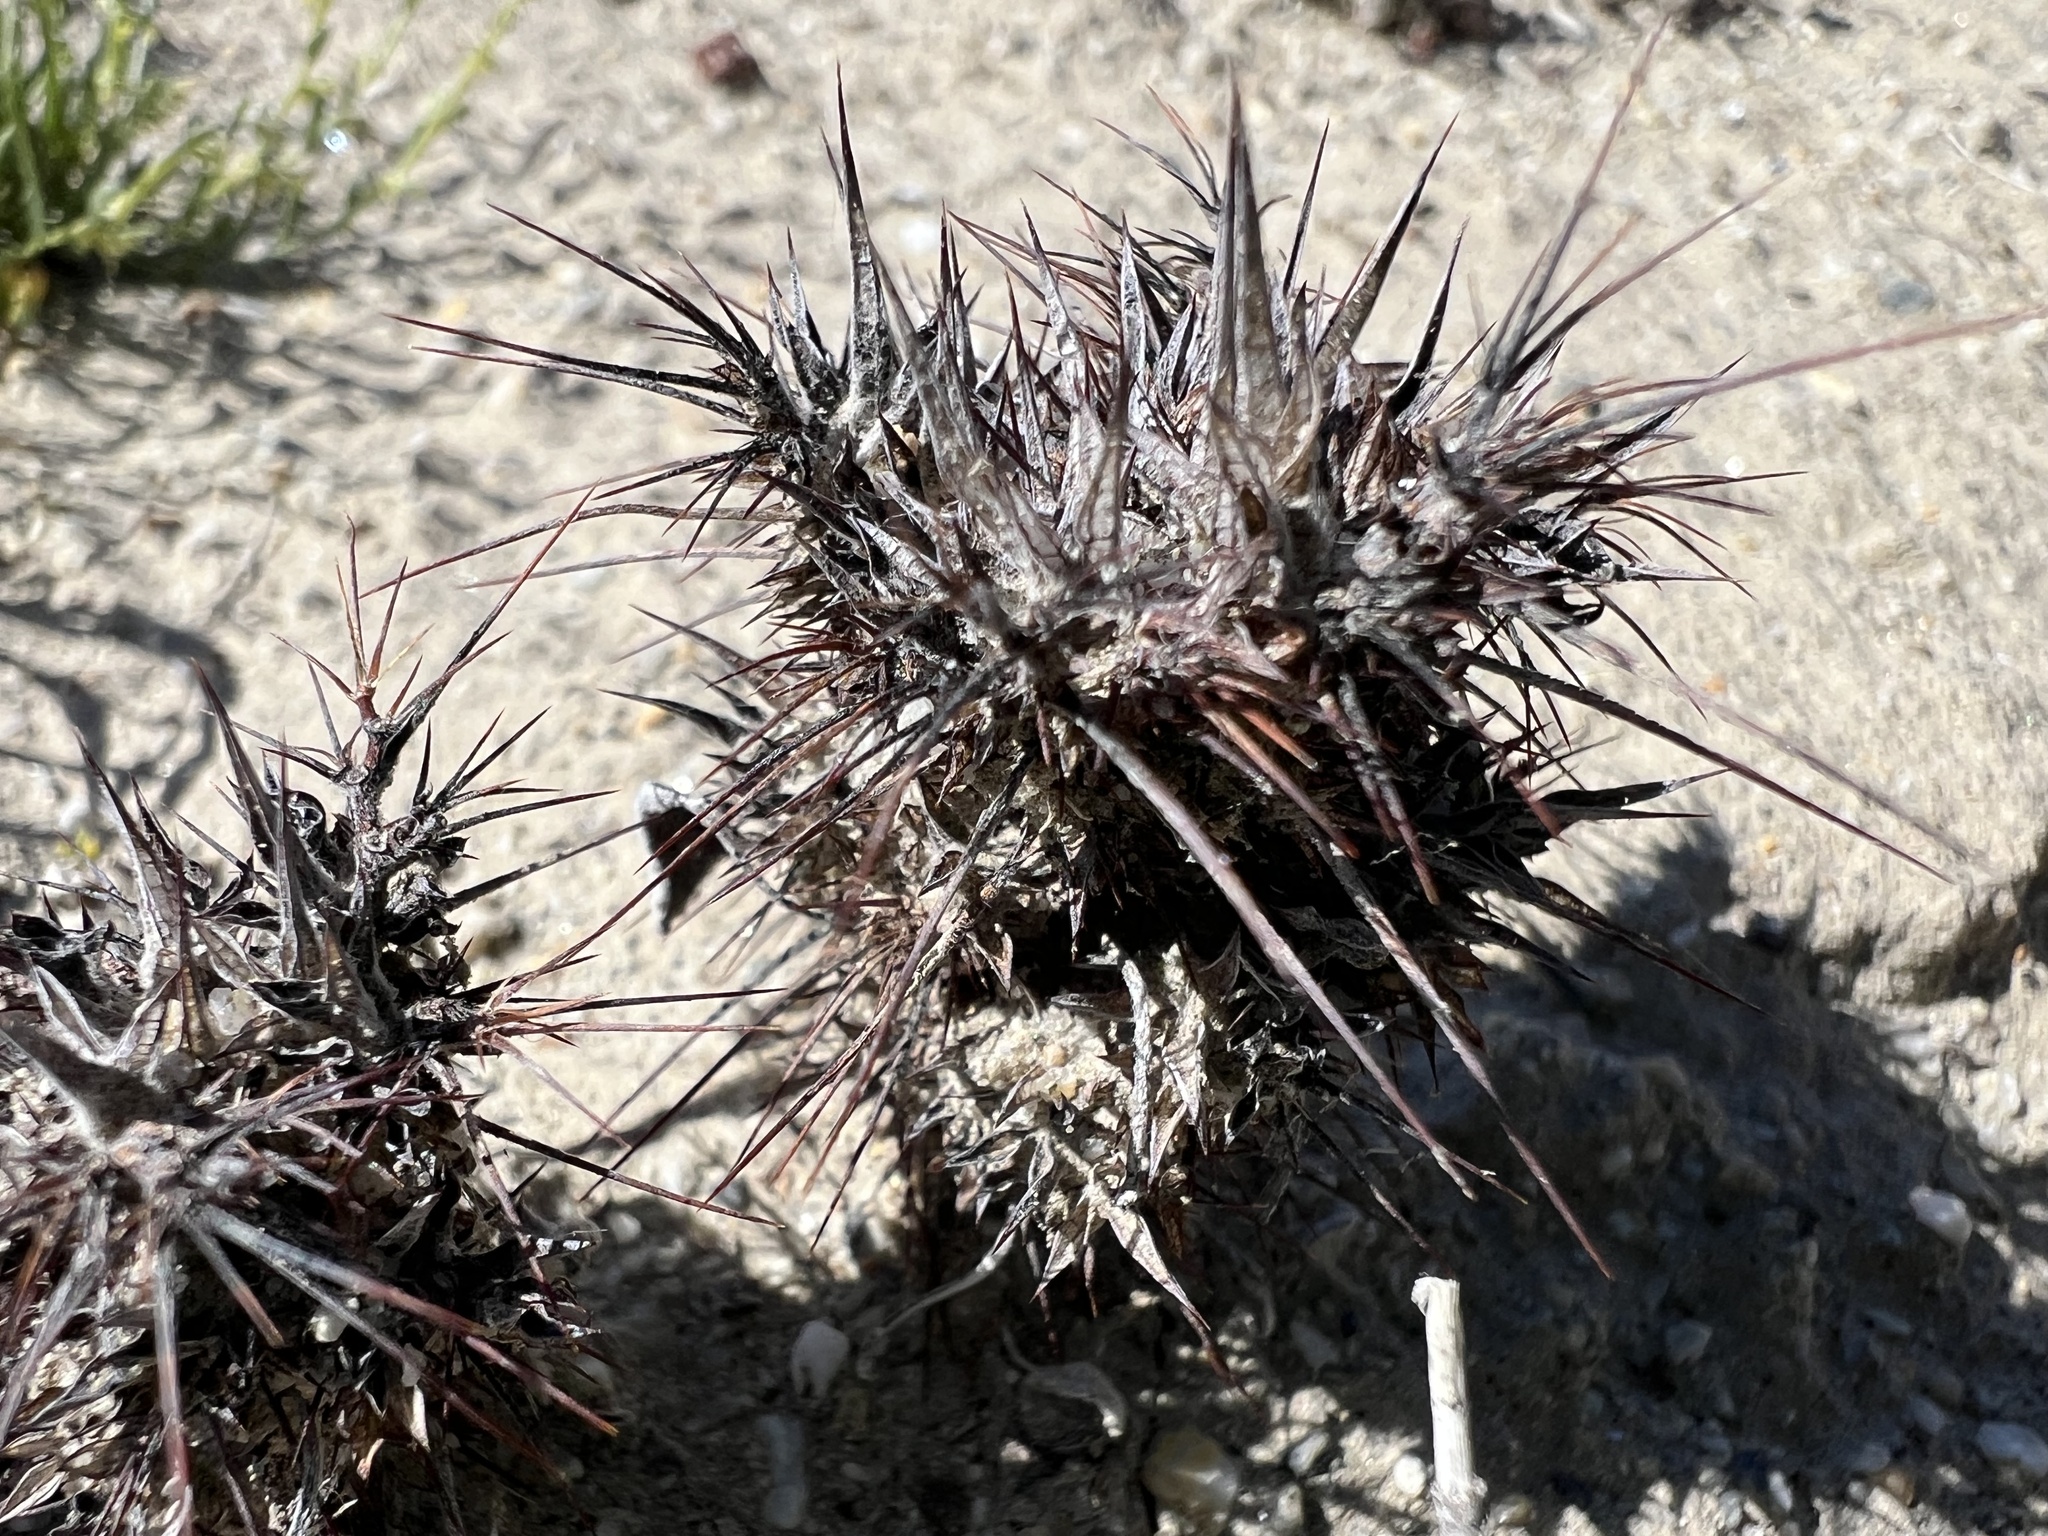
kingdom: Plantae
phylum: Tracheophyta
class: Magnoliopsida
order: Caryophyllales
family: Polygonaceae
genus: Chorizanthe
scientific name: Chorizanthe rigida
